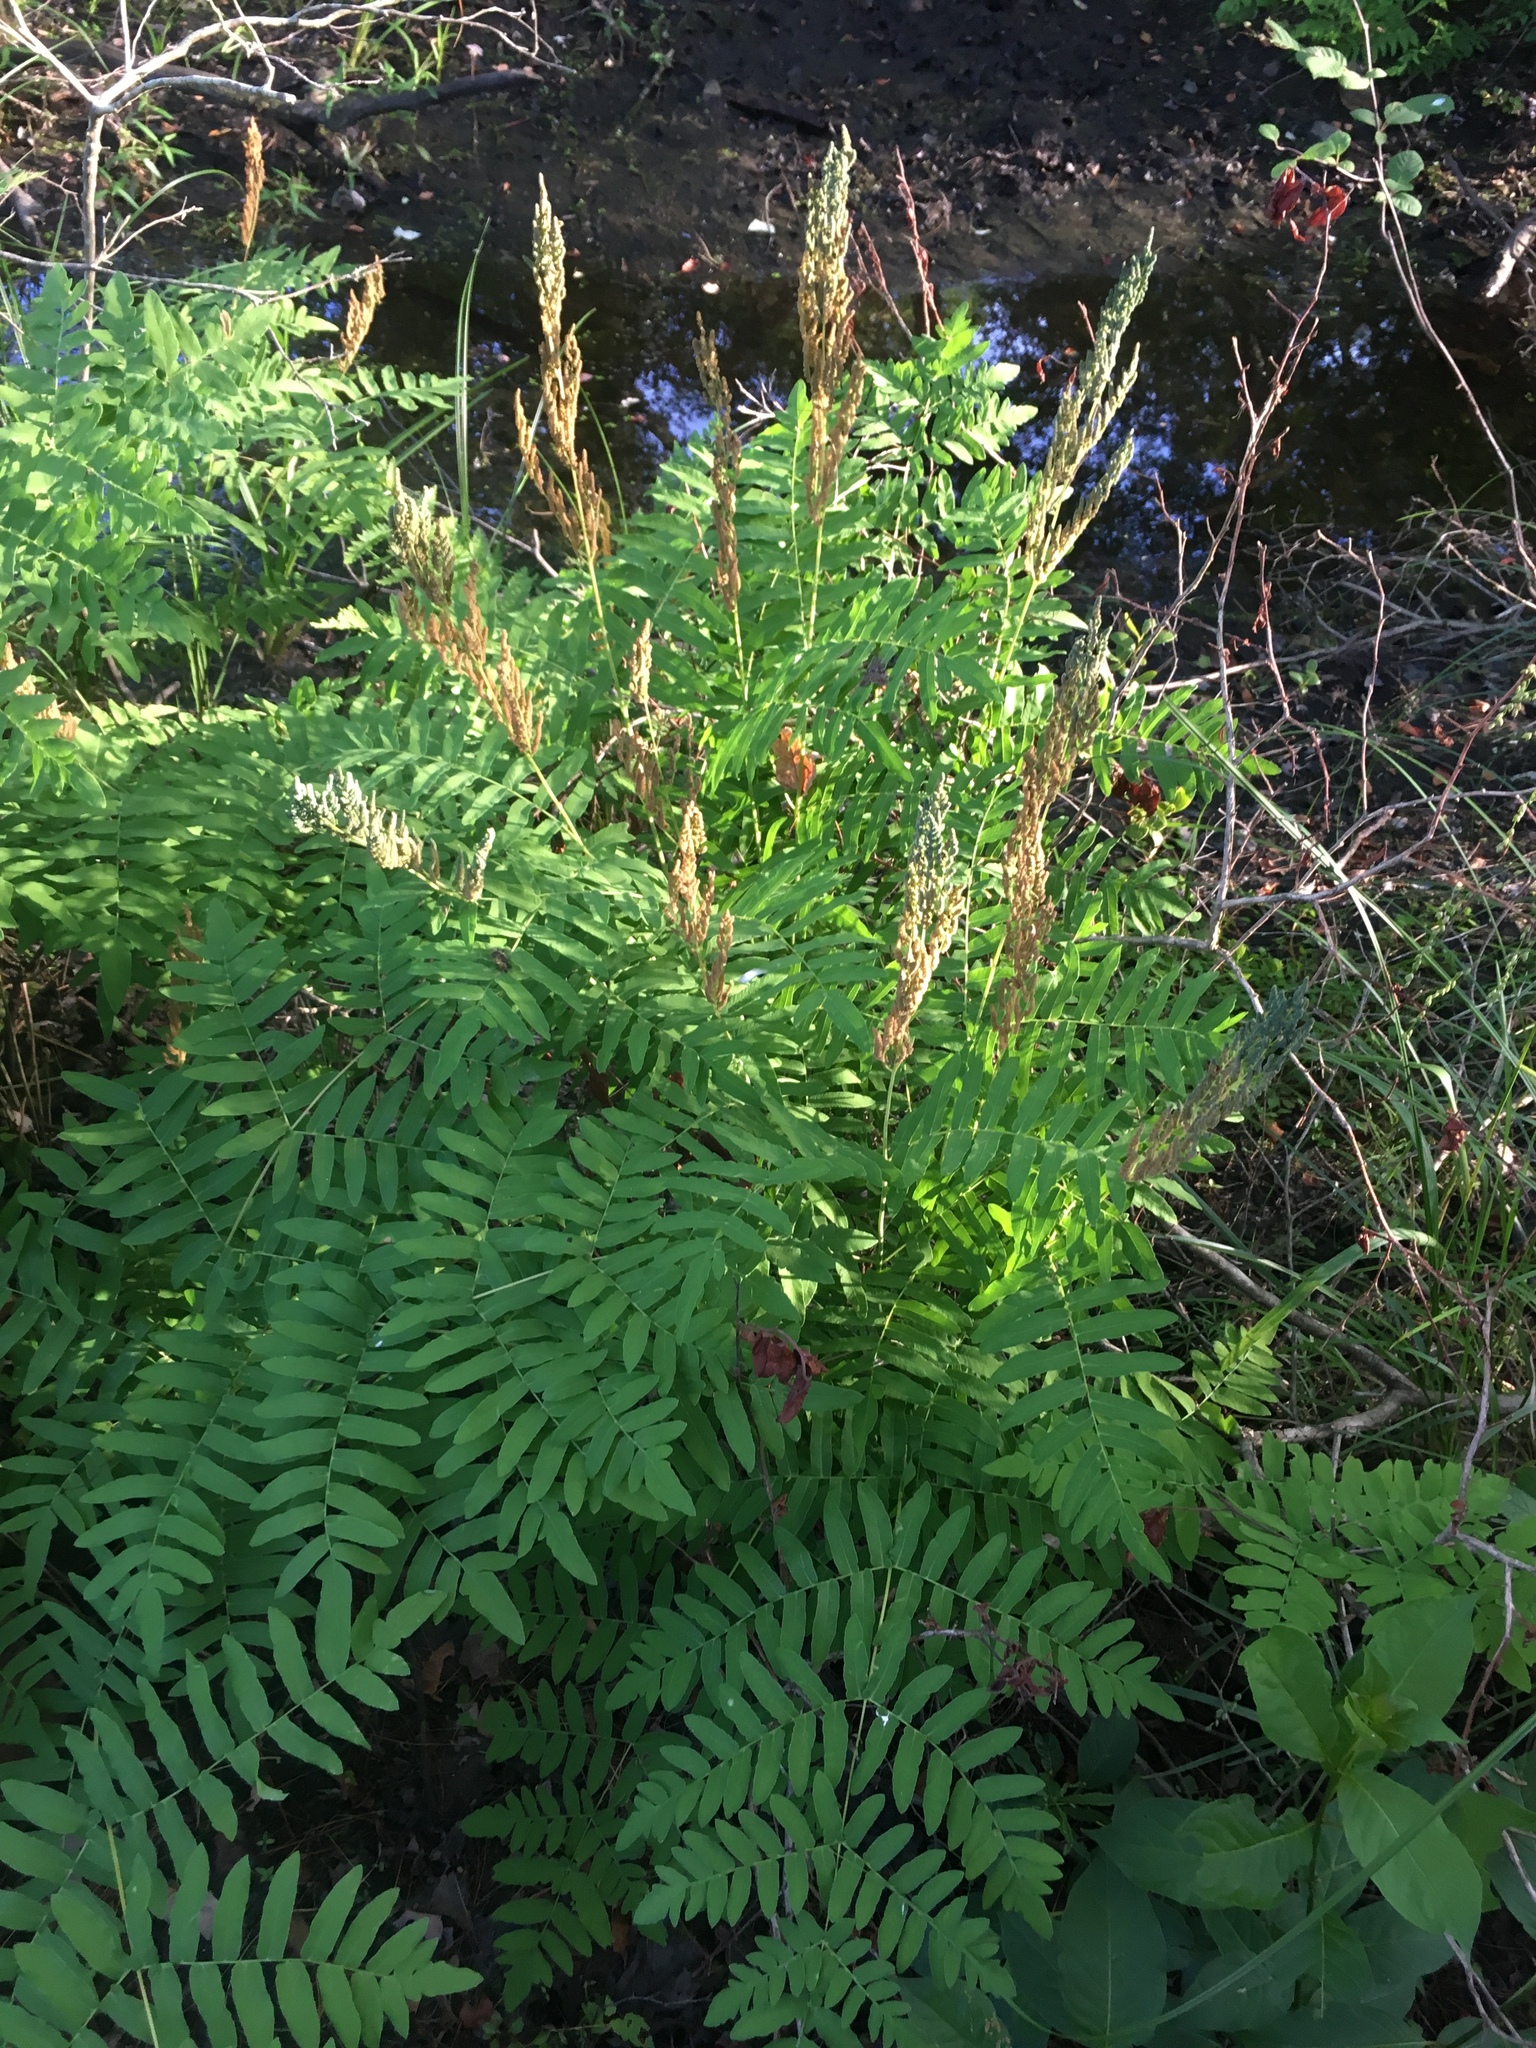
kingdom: Plantae
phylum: Tracheophyta
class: Polypodiopsida
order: Osmundales
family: Osmundaceae
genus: Osmunda
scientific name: Osmunda spectabilis
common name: American royal fern
